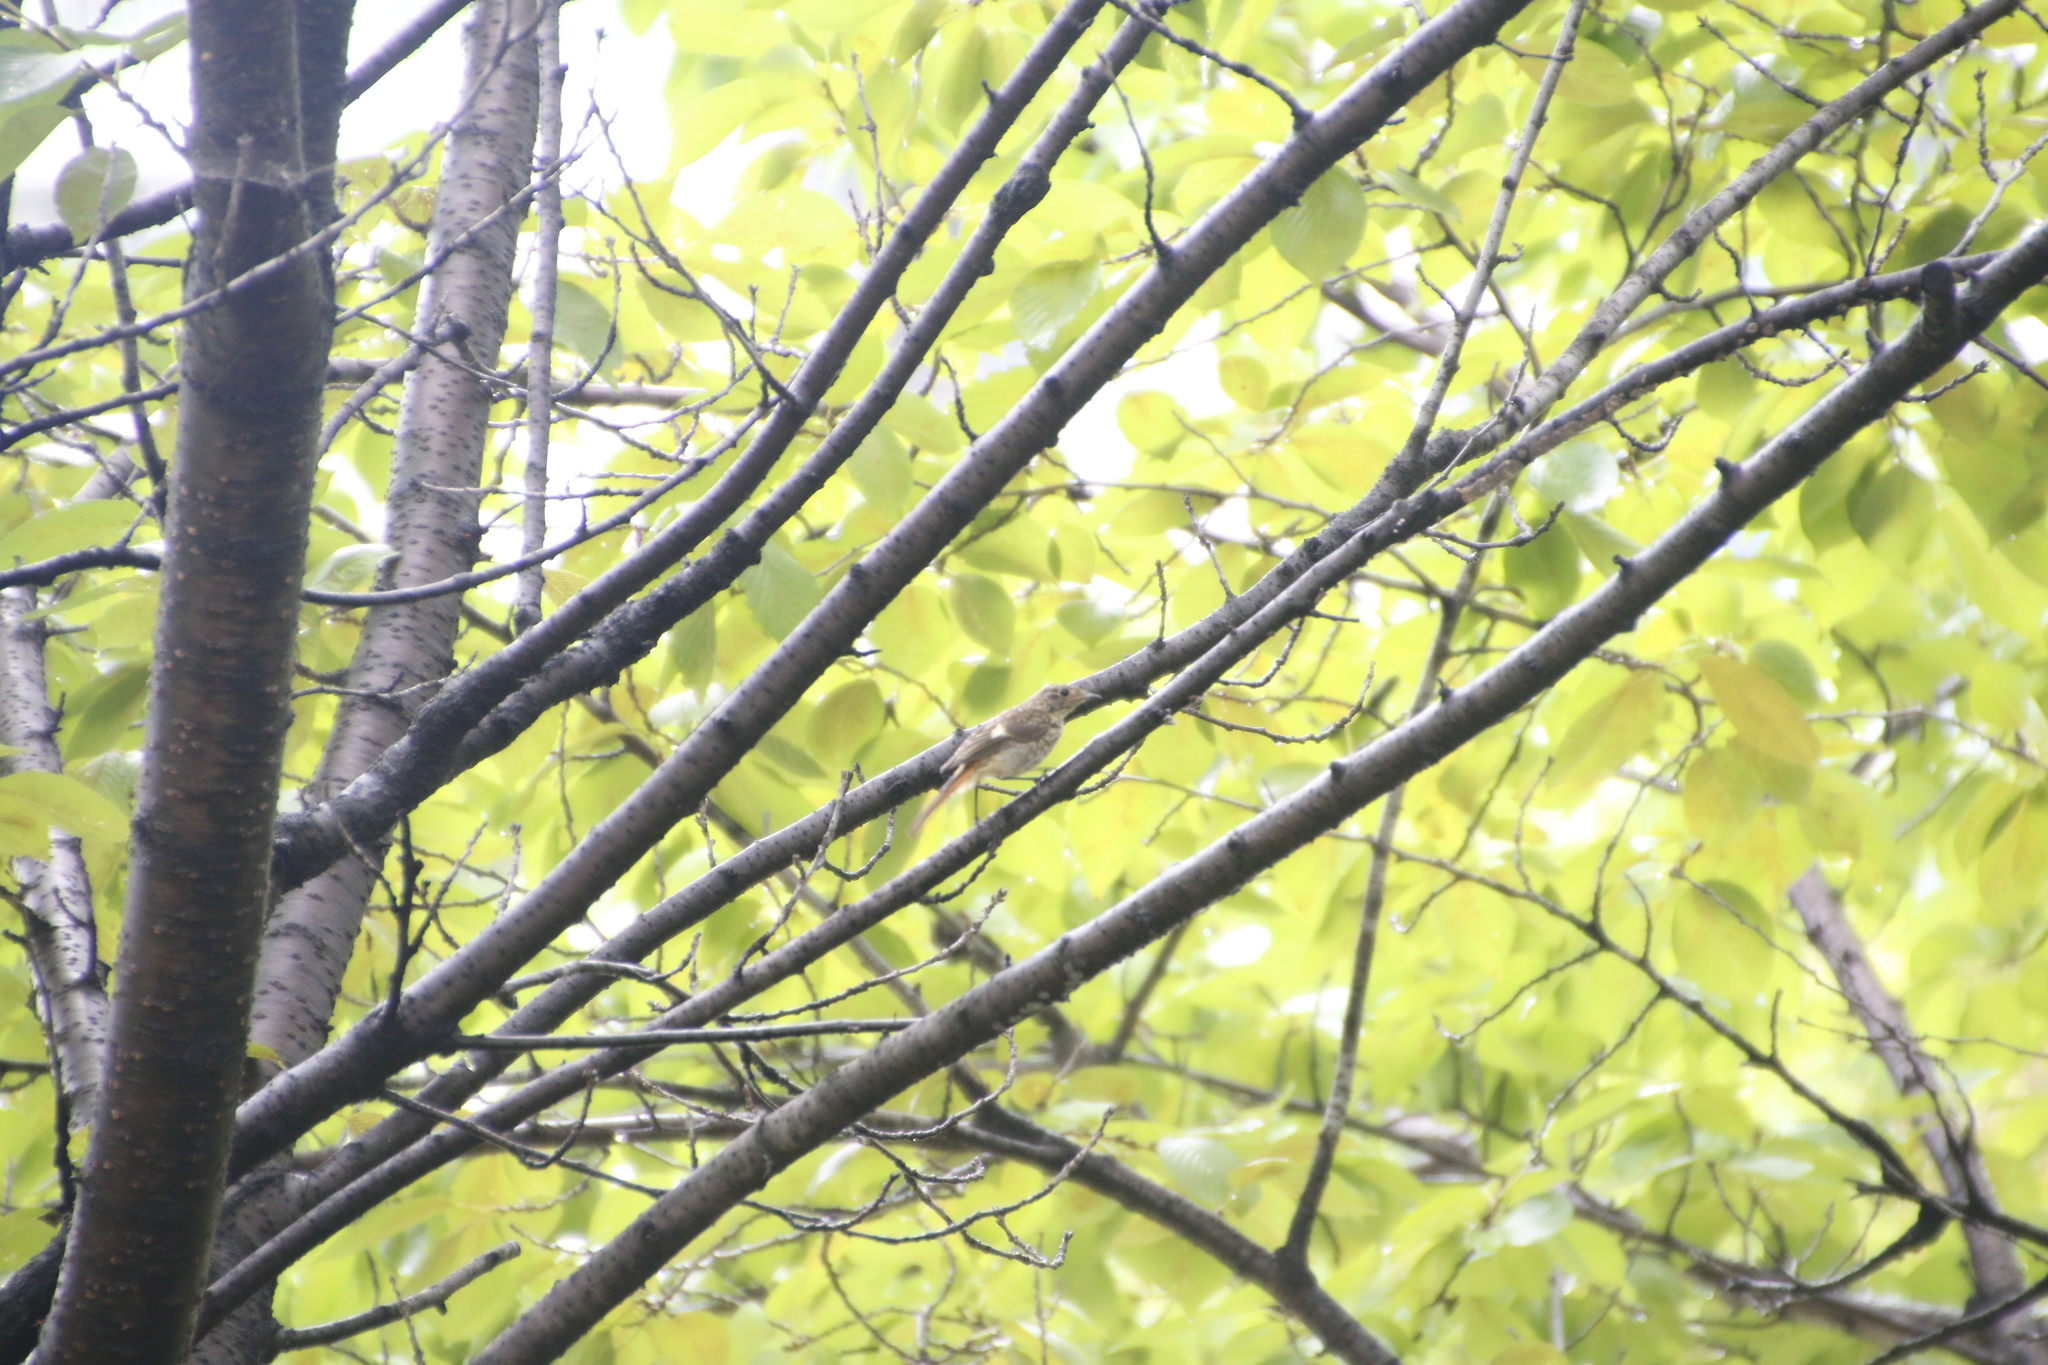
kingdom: Animalia
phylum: Chordata
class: Aves
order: Passeriformes
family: Muscicapidae
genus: Phoenicurus
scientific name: Phoenicurus auroreus
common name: Daurian redstart
